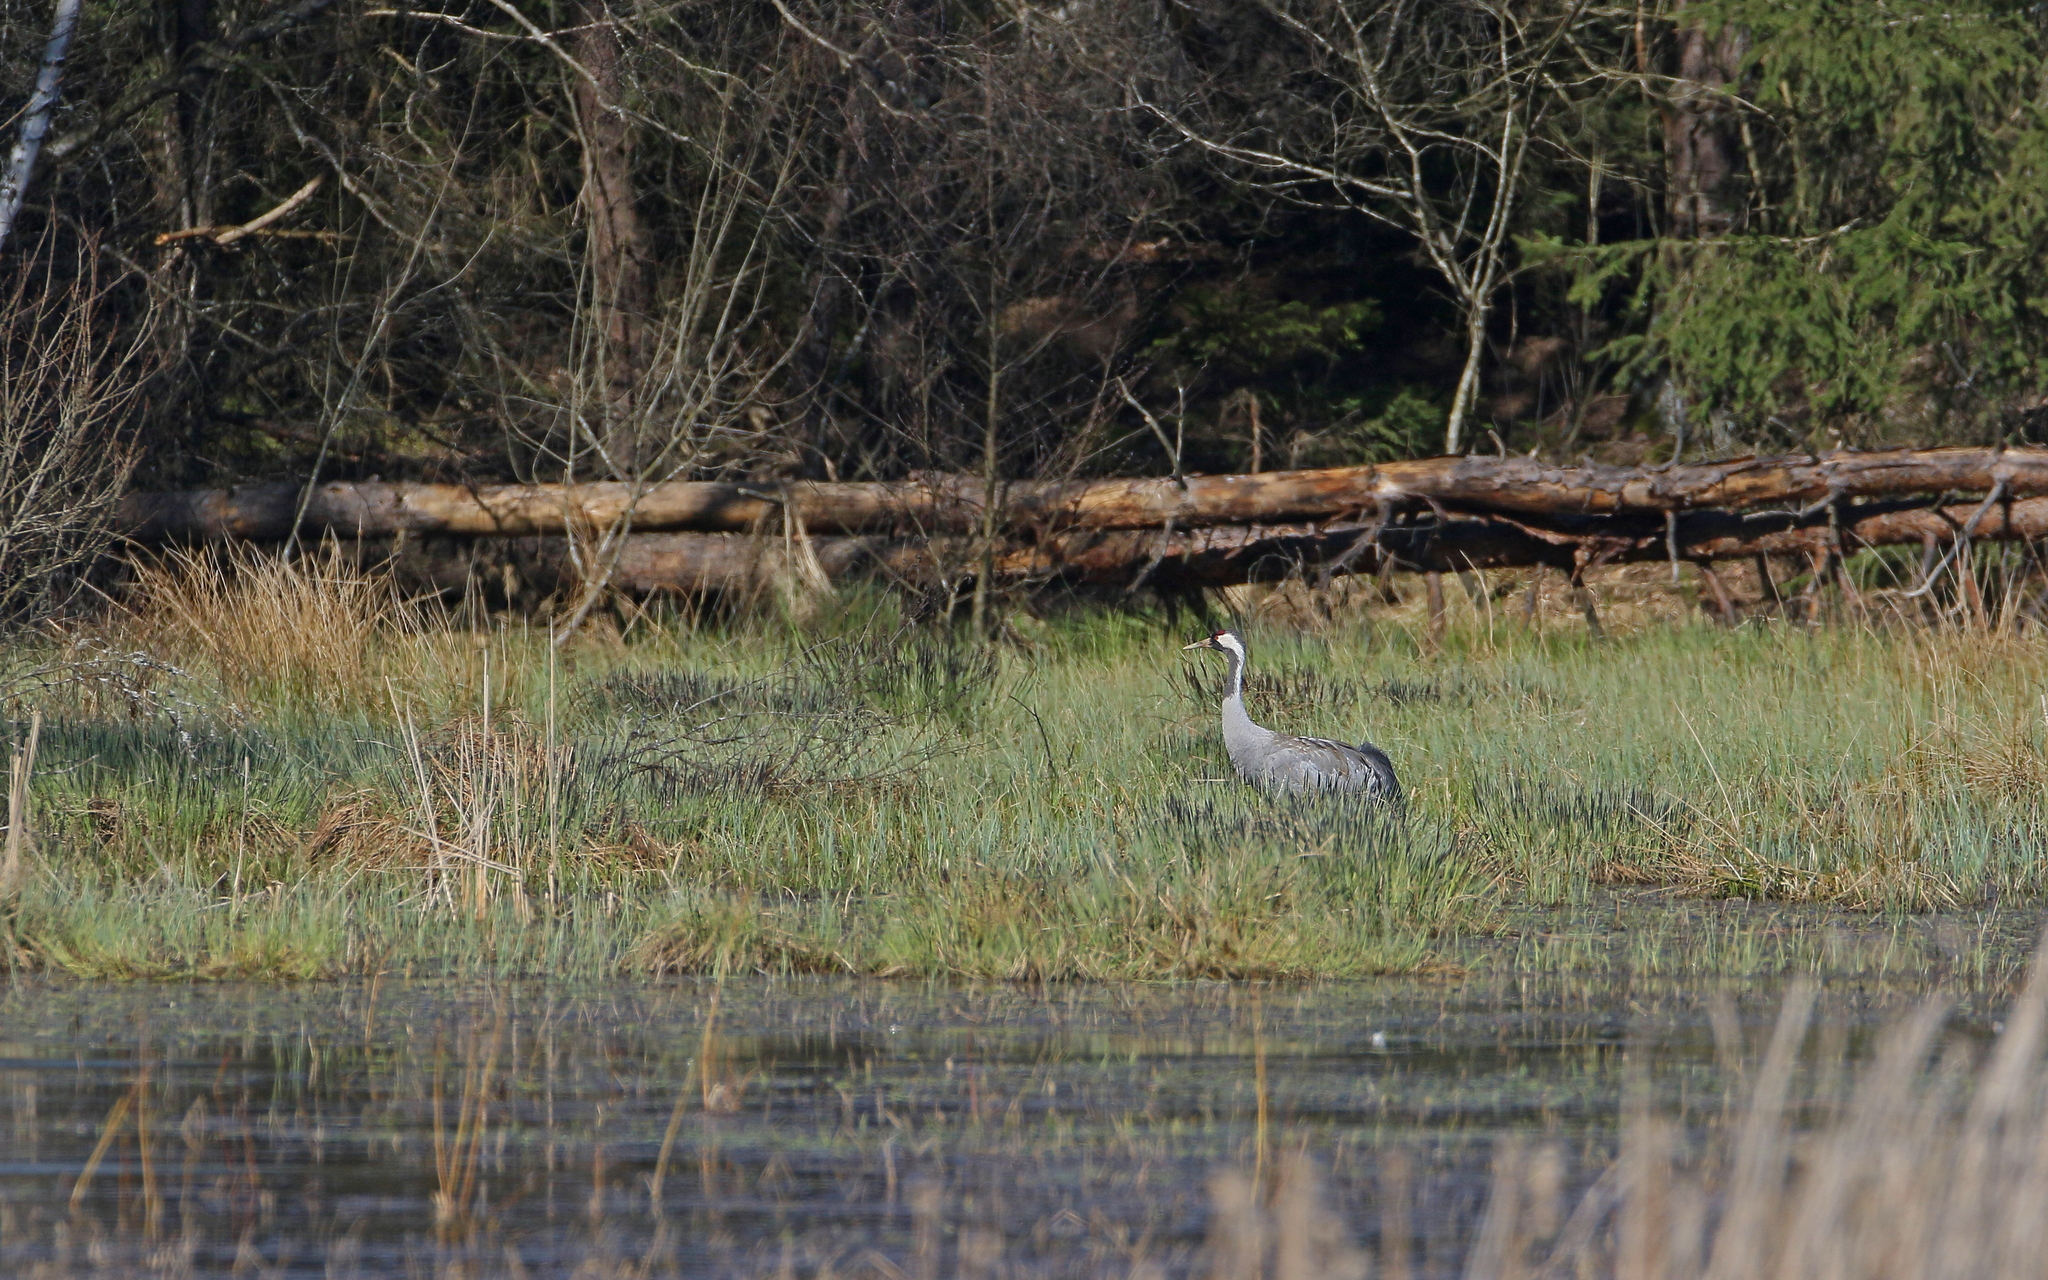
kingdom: Animalia
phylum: Chordata
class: Aves
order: Gruiformes
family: Gruidae
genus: Grus
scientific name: Grus grus
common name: Common crane
